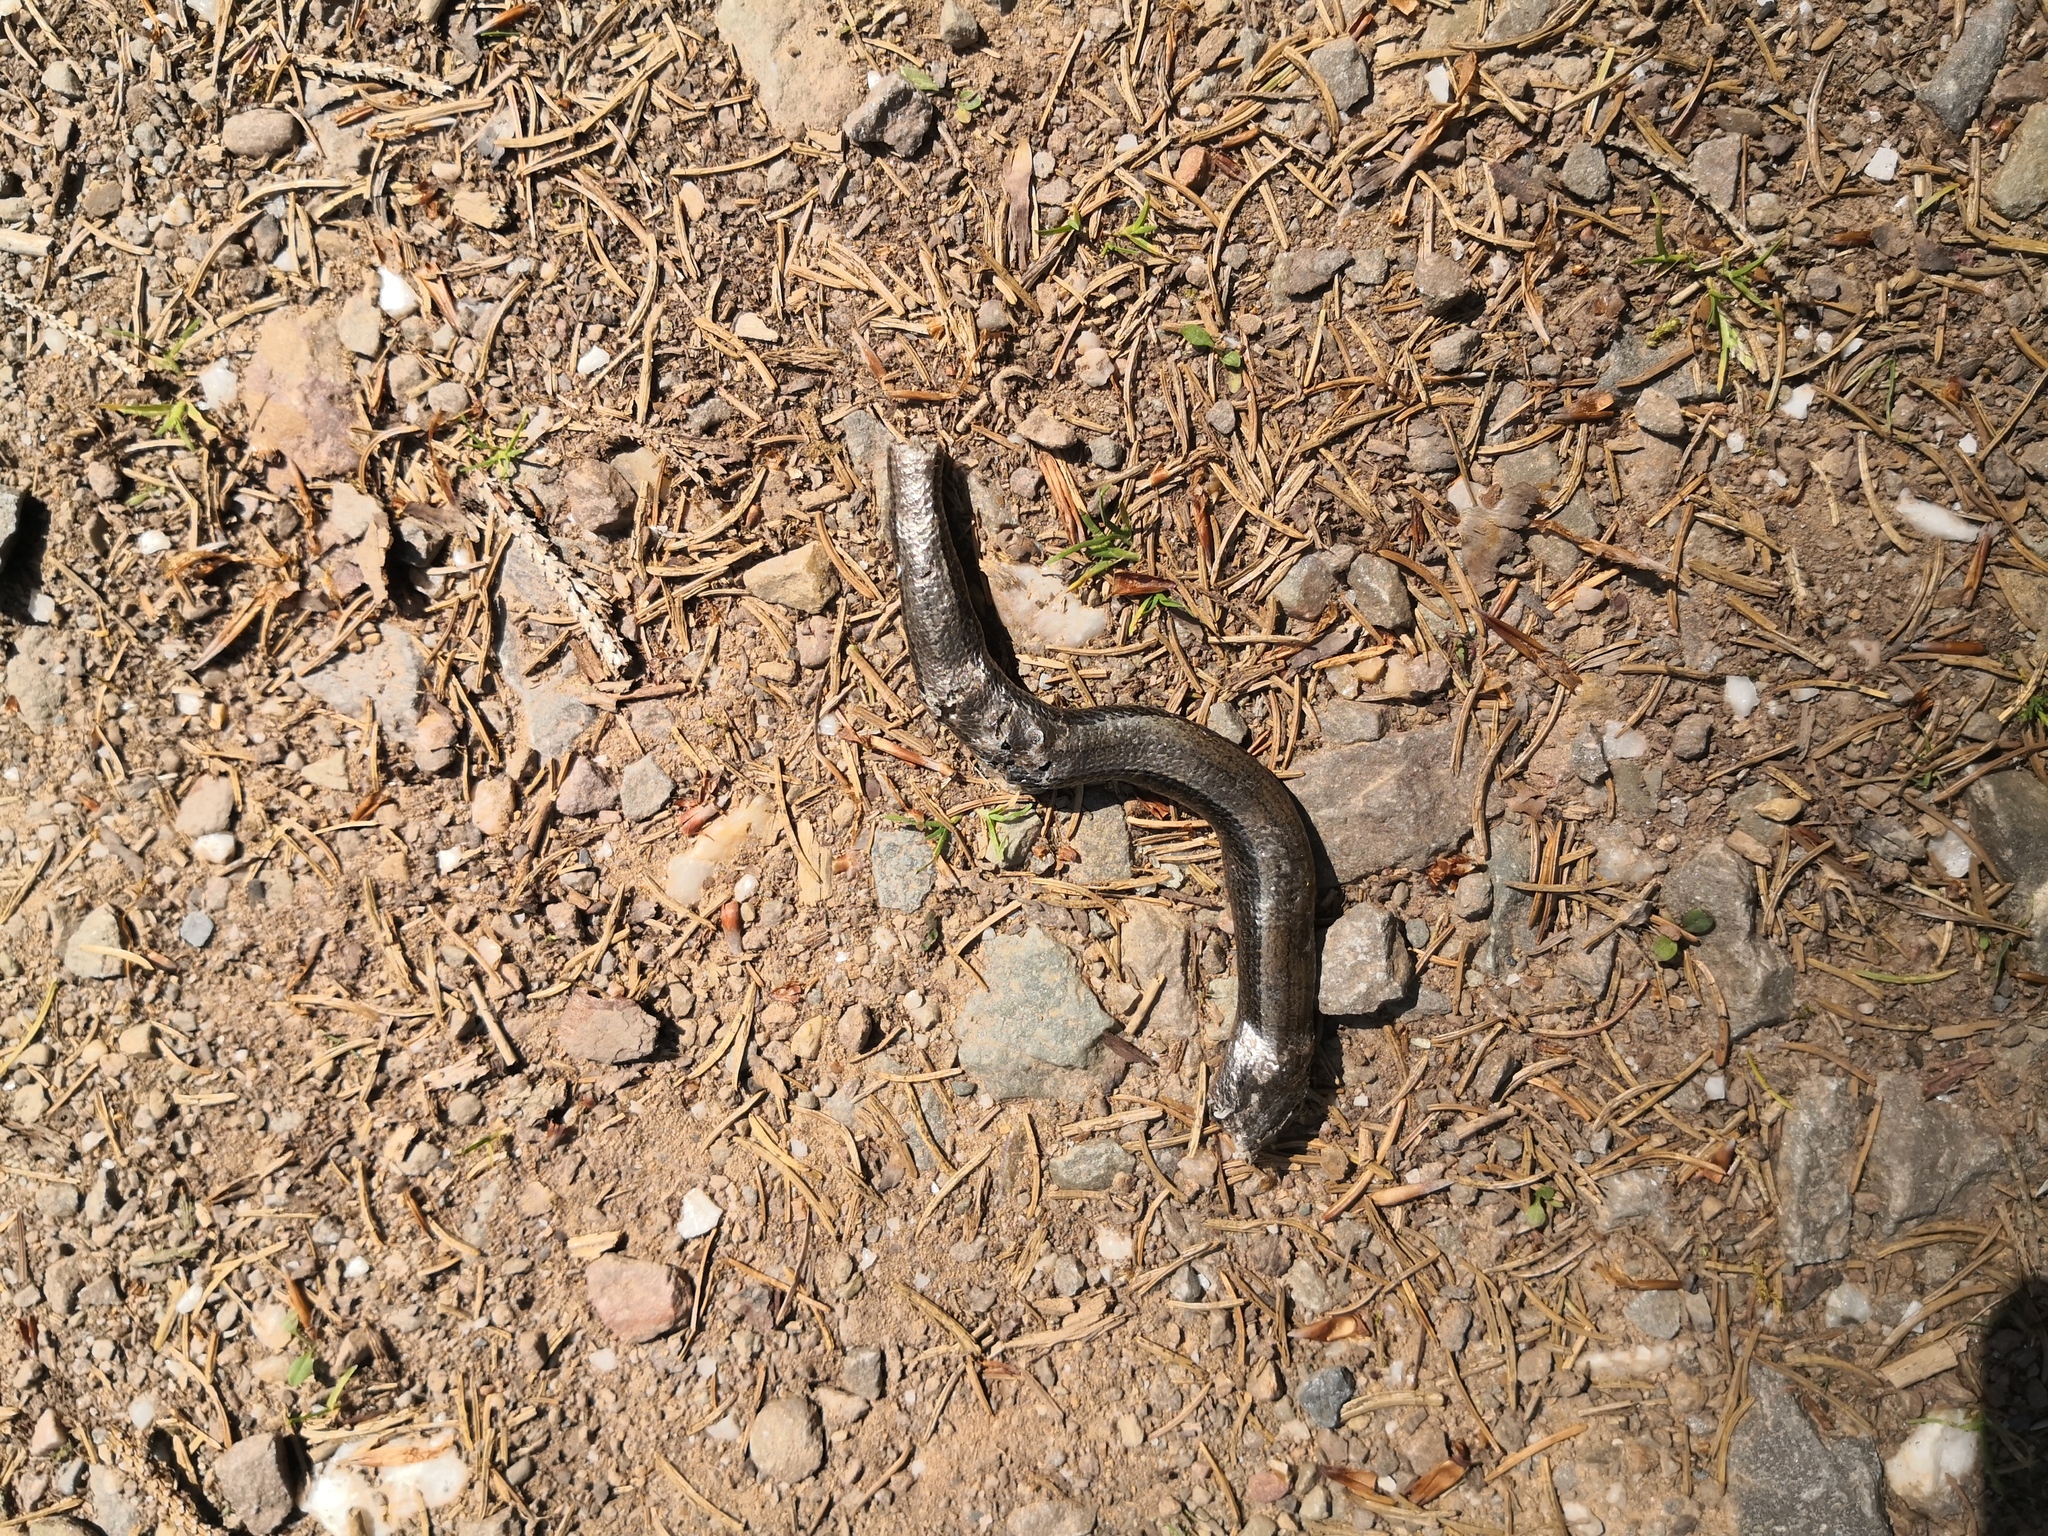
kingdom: Animalia
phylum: Chordata
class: Squamata
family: Anguidae
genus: Anguis
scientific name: Anguis fragilis
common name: Slow worm
